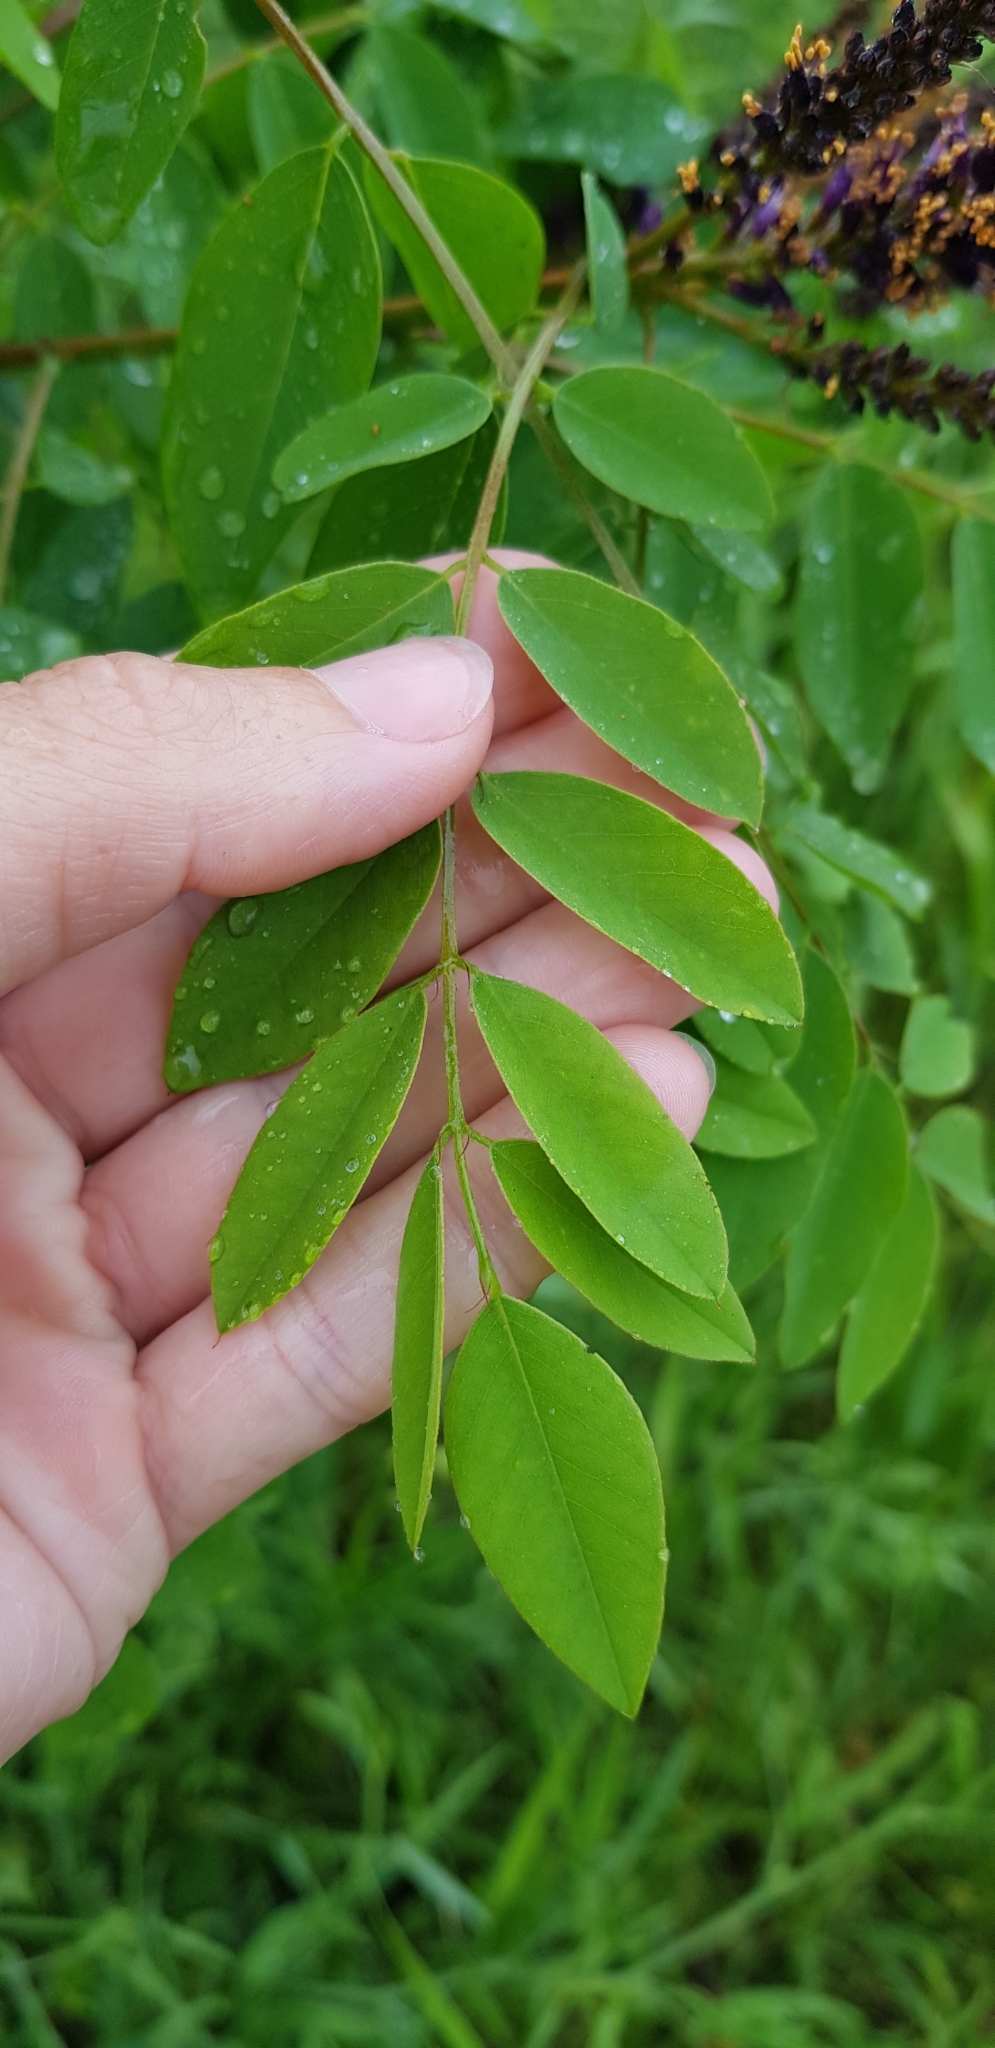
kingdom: Plantae
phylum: Tracheophyta
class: Magnoliopsida
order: Fabales
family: Fabaceae
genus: Amorpha
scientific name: Amorpha fruticosa
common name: False indigo
